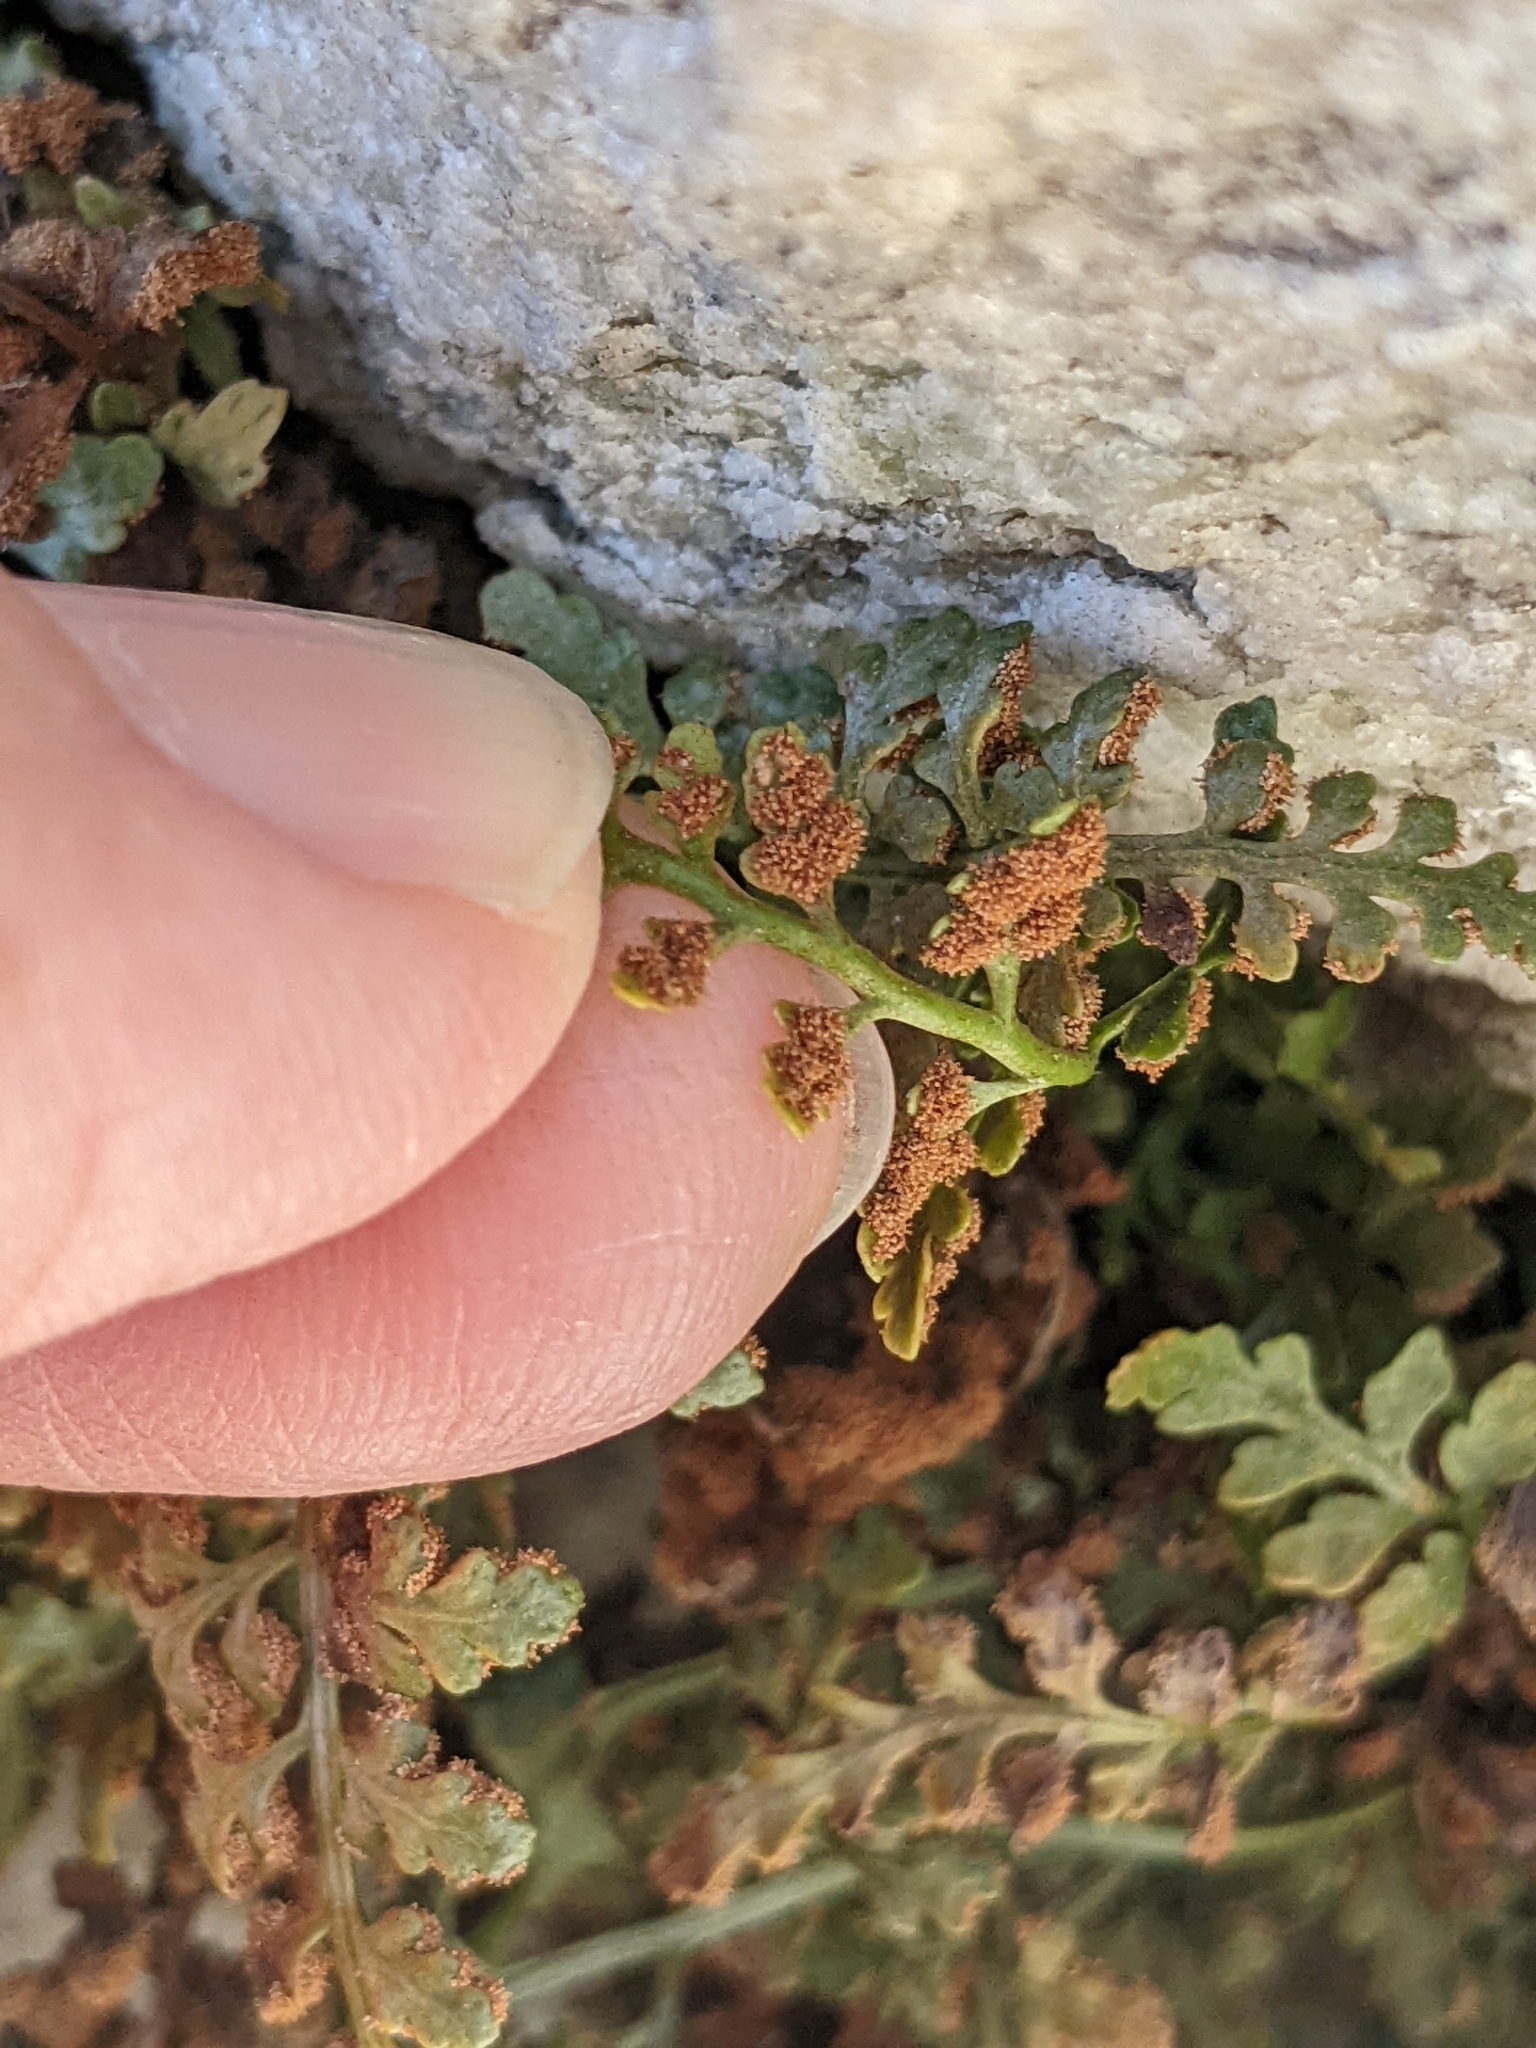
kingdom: Plantae
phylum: Tracheophyta
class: Polypodiopsida
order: Polypodiales
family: Aspleniaceae
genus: Asplenium
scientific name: Asplenium montanum
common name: Mountain spleenwort
